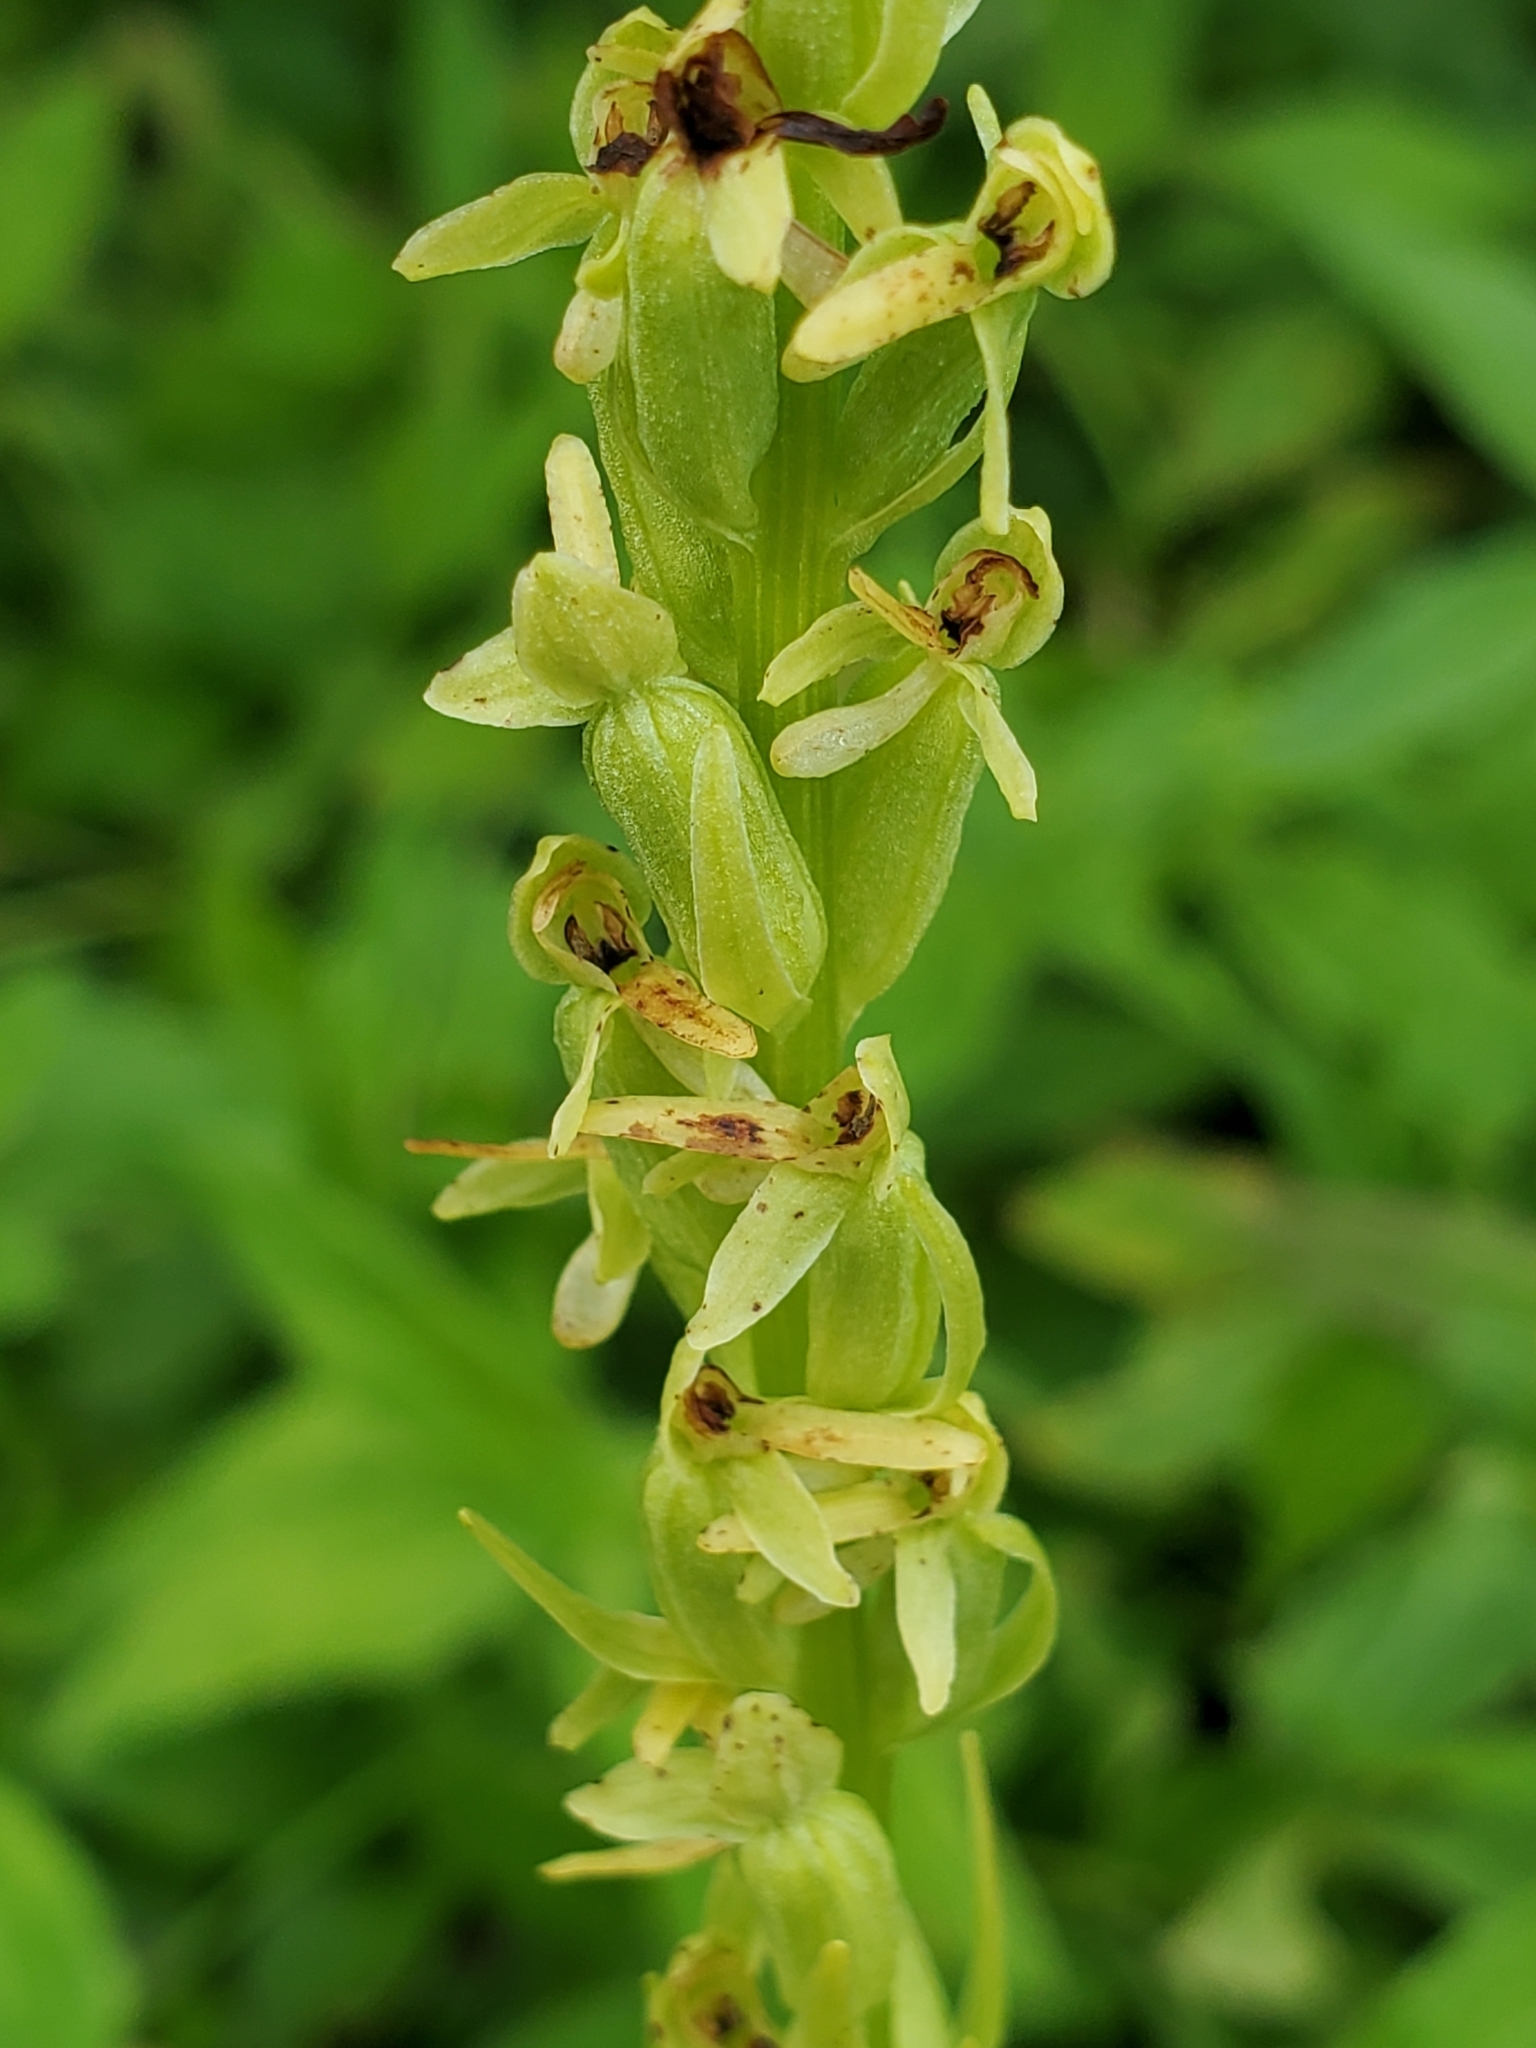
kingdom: Plantae
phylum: Tracheophyta
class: Liliopsida
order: Asparagales
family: Orchidaceae
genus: Platanthera
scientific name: Platanthera stricta
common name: Slender bog orchid
